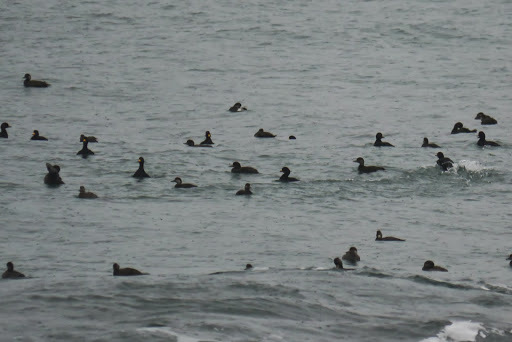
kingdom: Animalia
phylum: Chordata
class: Aves
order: Anseriformes
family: Anatidae
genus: Melanitta
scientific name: Melanitta americana
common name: Black scoter
